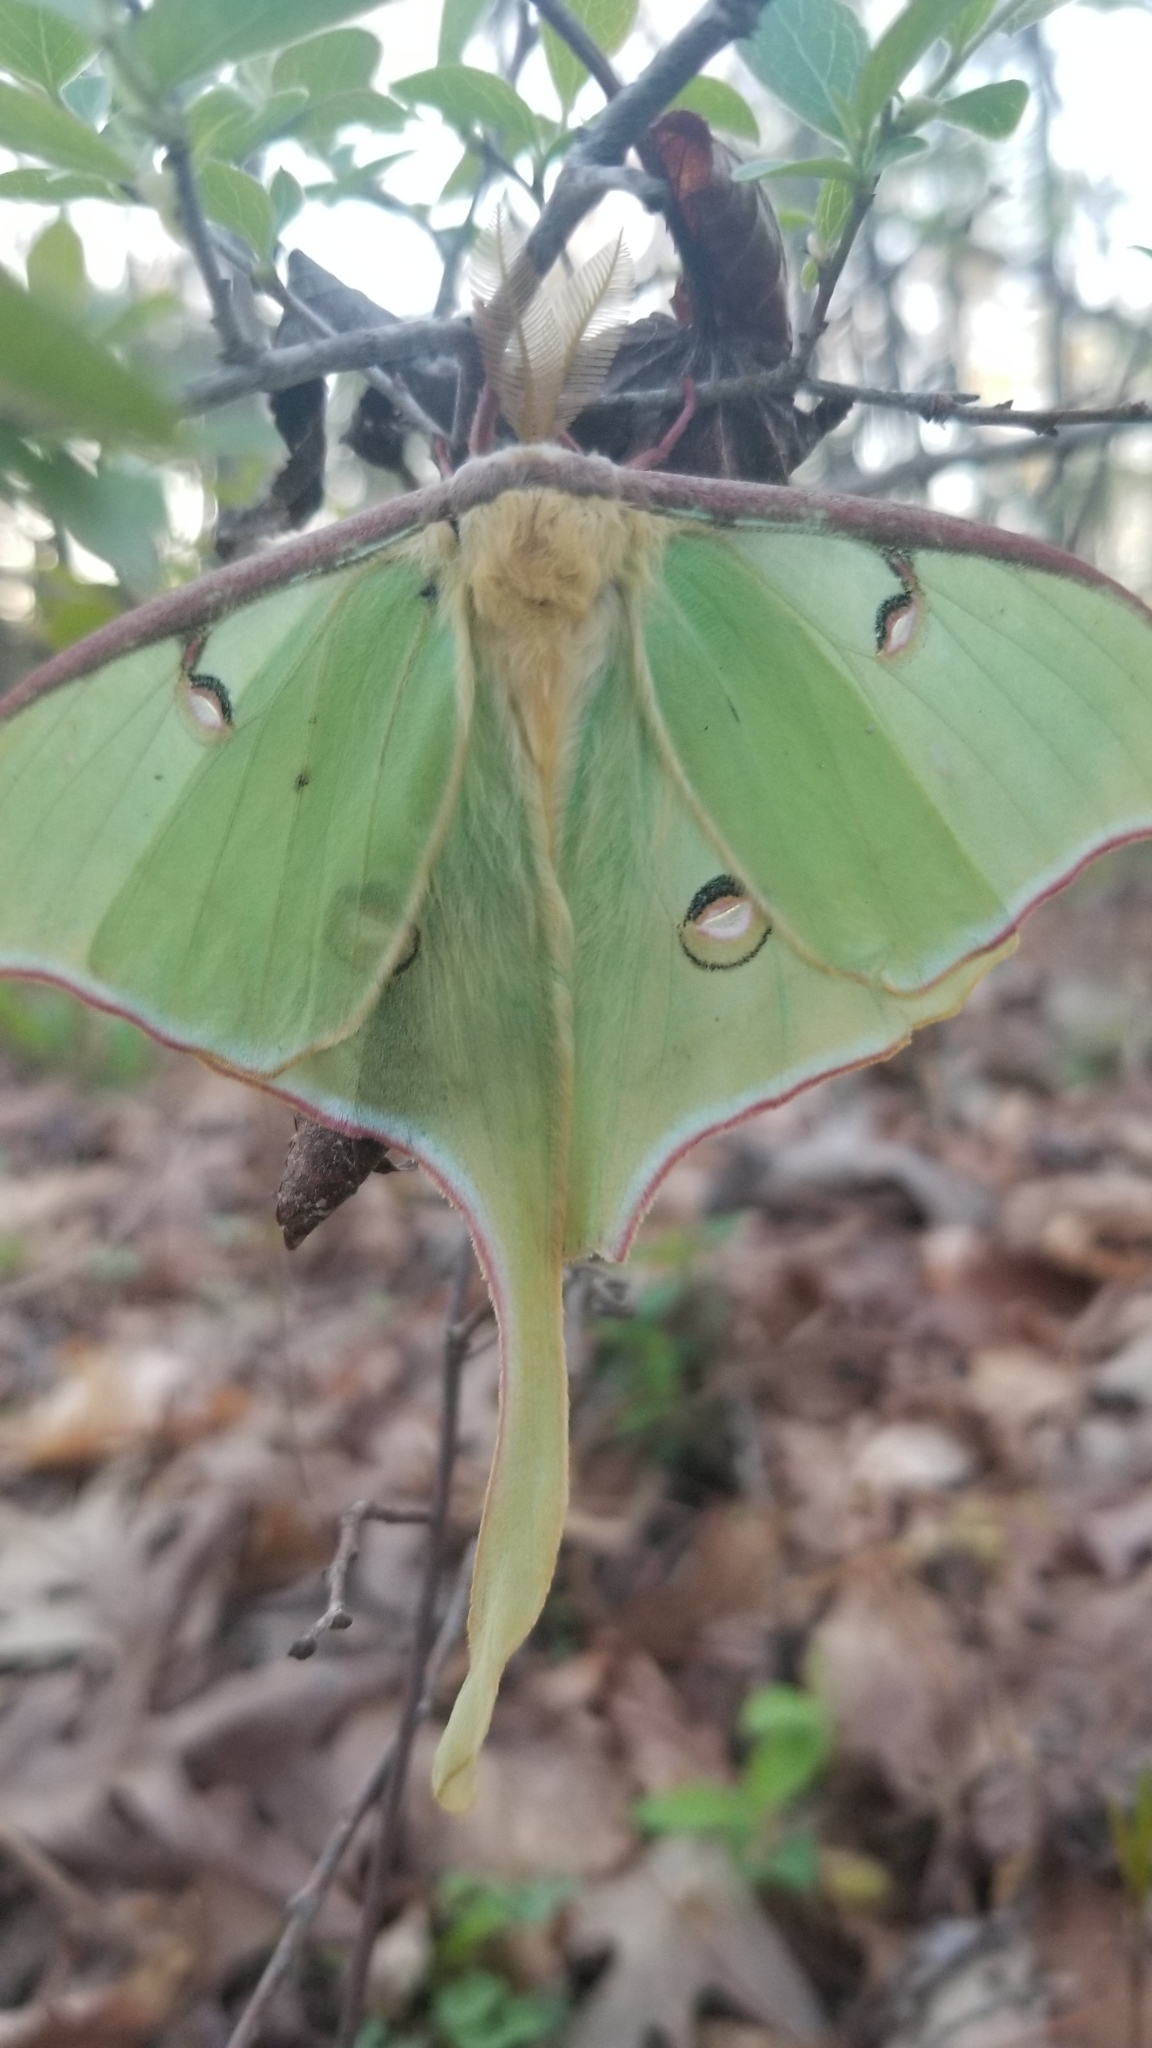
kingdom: Animalia
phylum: Arthropoda
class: Insecta
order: Lepidoptera
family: Saturniidae
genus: Actias
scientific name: Actias luna
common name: Luna moth
